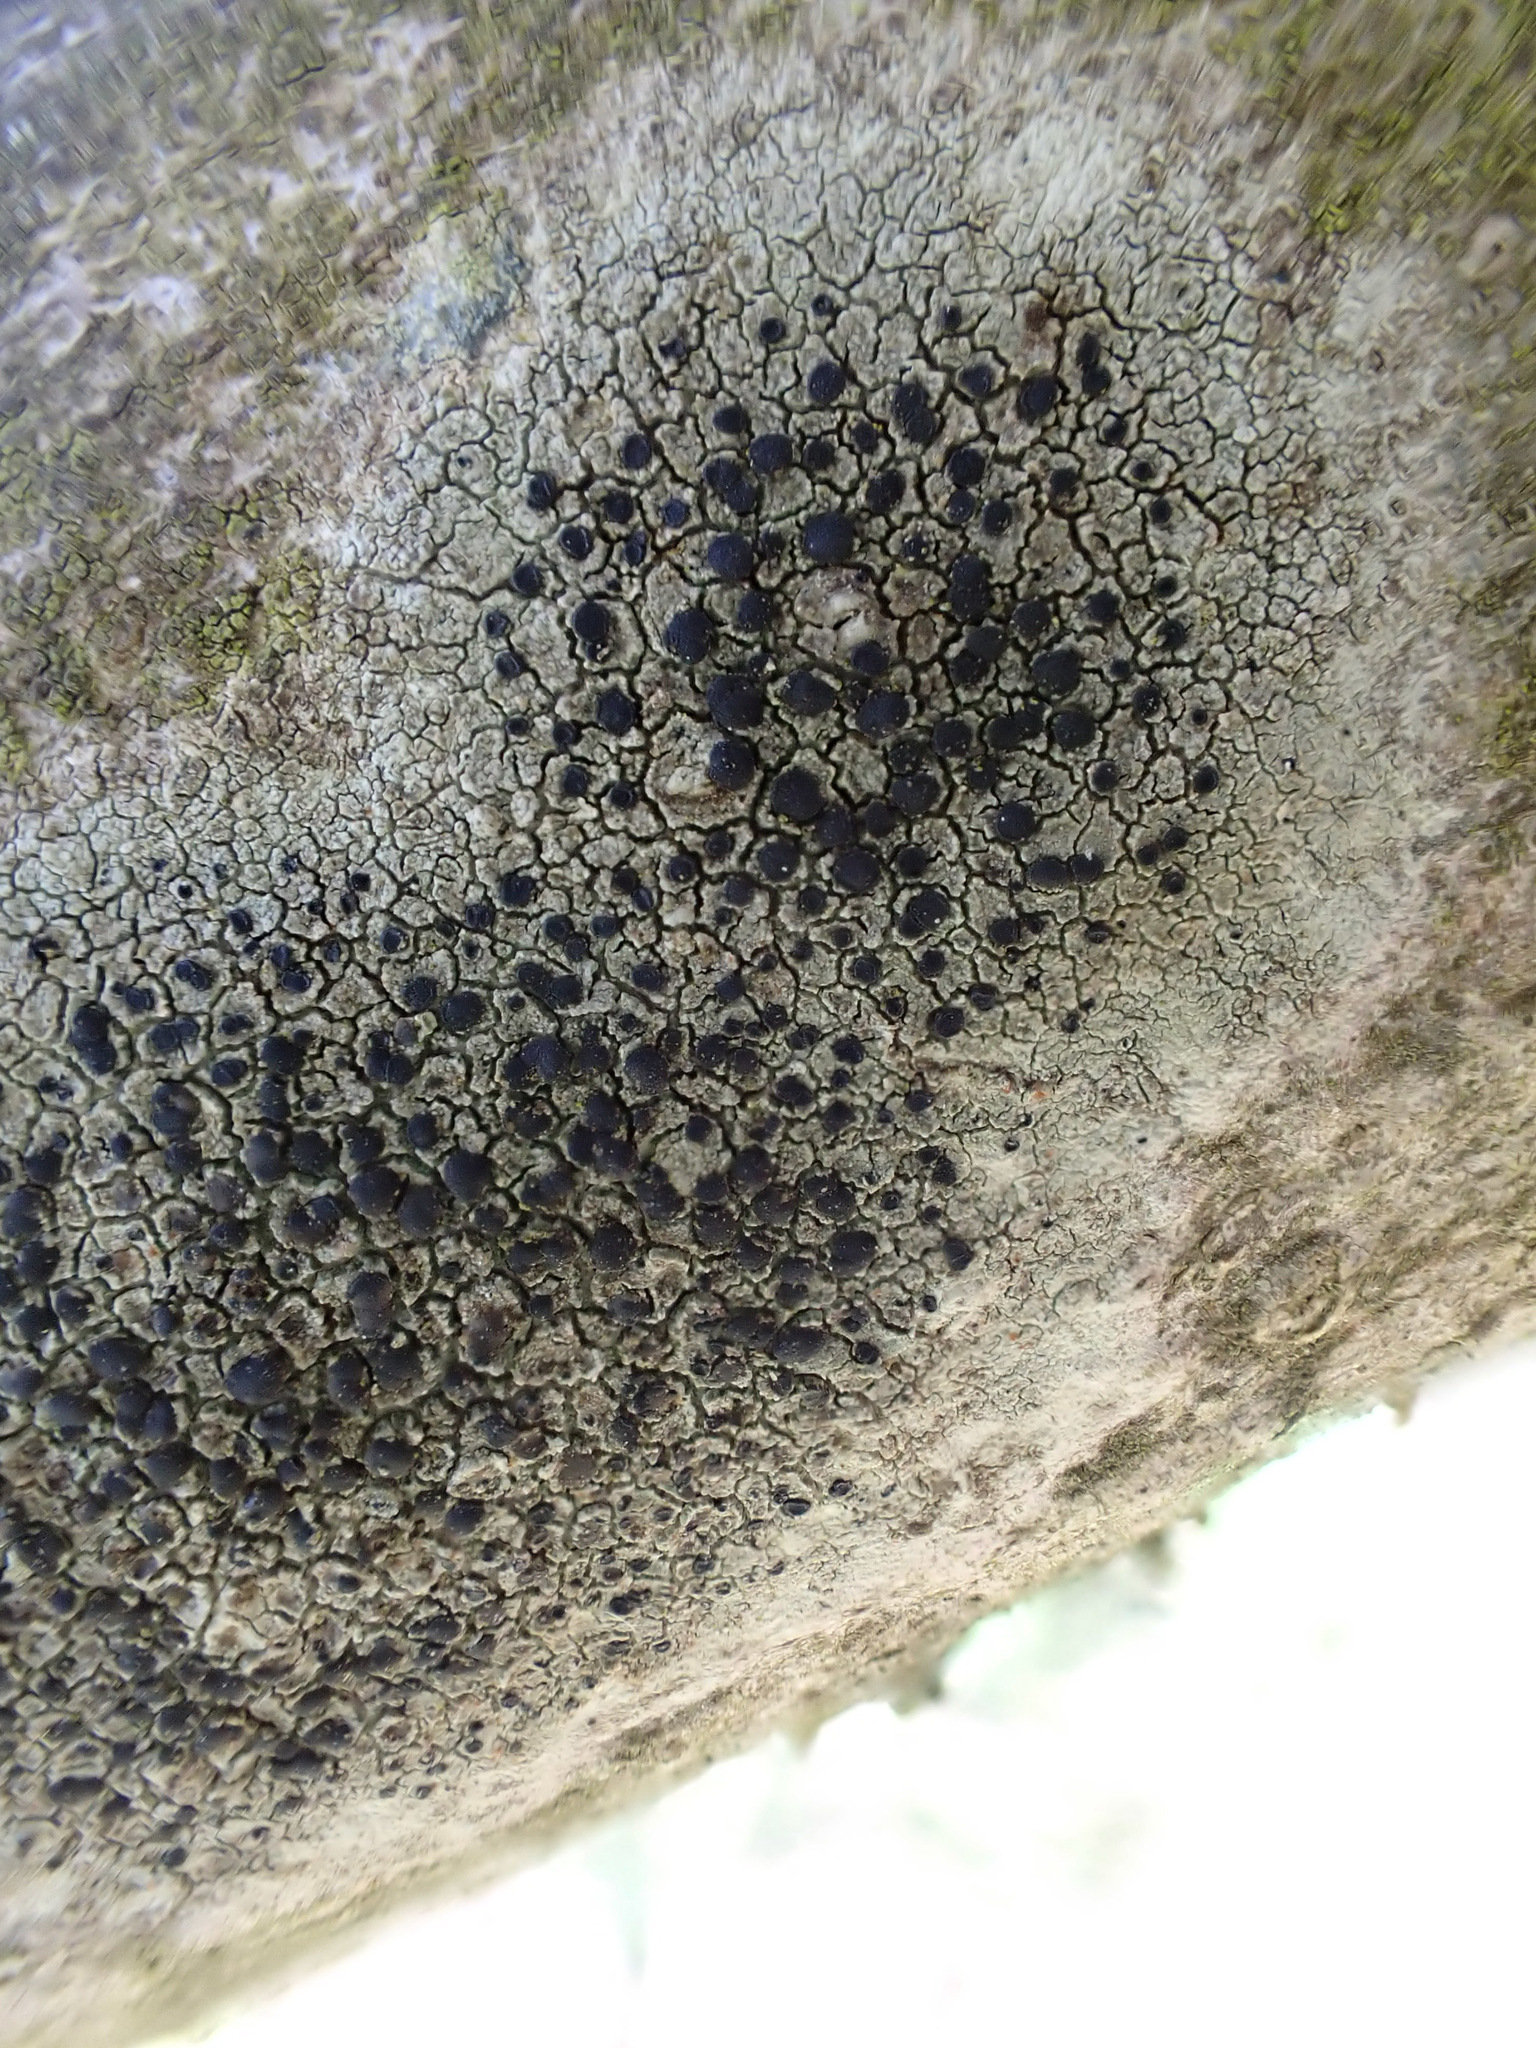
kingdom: Fungi
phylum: Ascomycota
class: Lecanoromycetes
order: Lecanorales
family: Lecanoraceae
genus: Lecidella
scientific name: Lecidella elaeochroma
